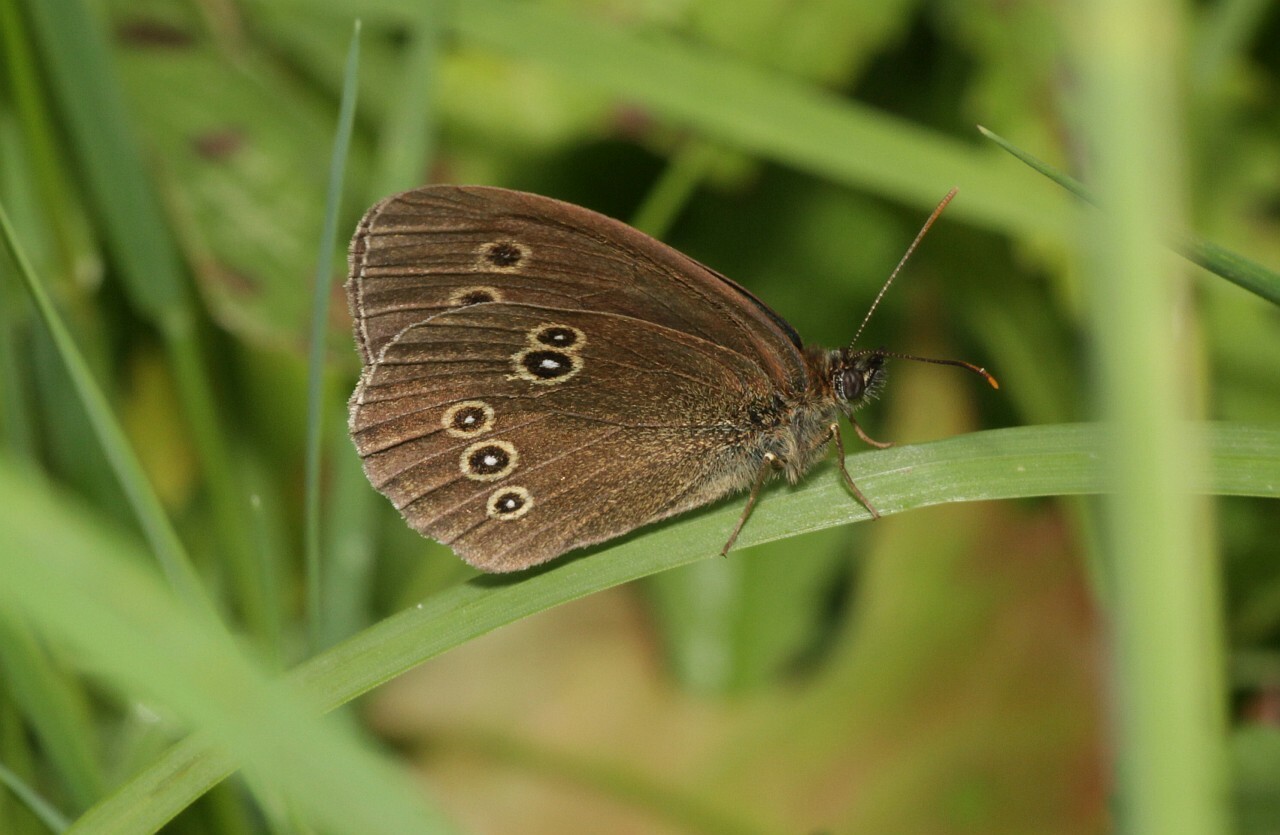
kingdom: Animalia
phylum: Arthropoda
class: Insecta
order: Lepidoptera
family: Nymphalidae
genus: Aphantopus
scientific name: Aphantopus hyperantus
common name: Ringlet
